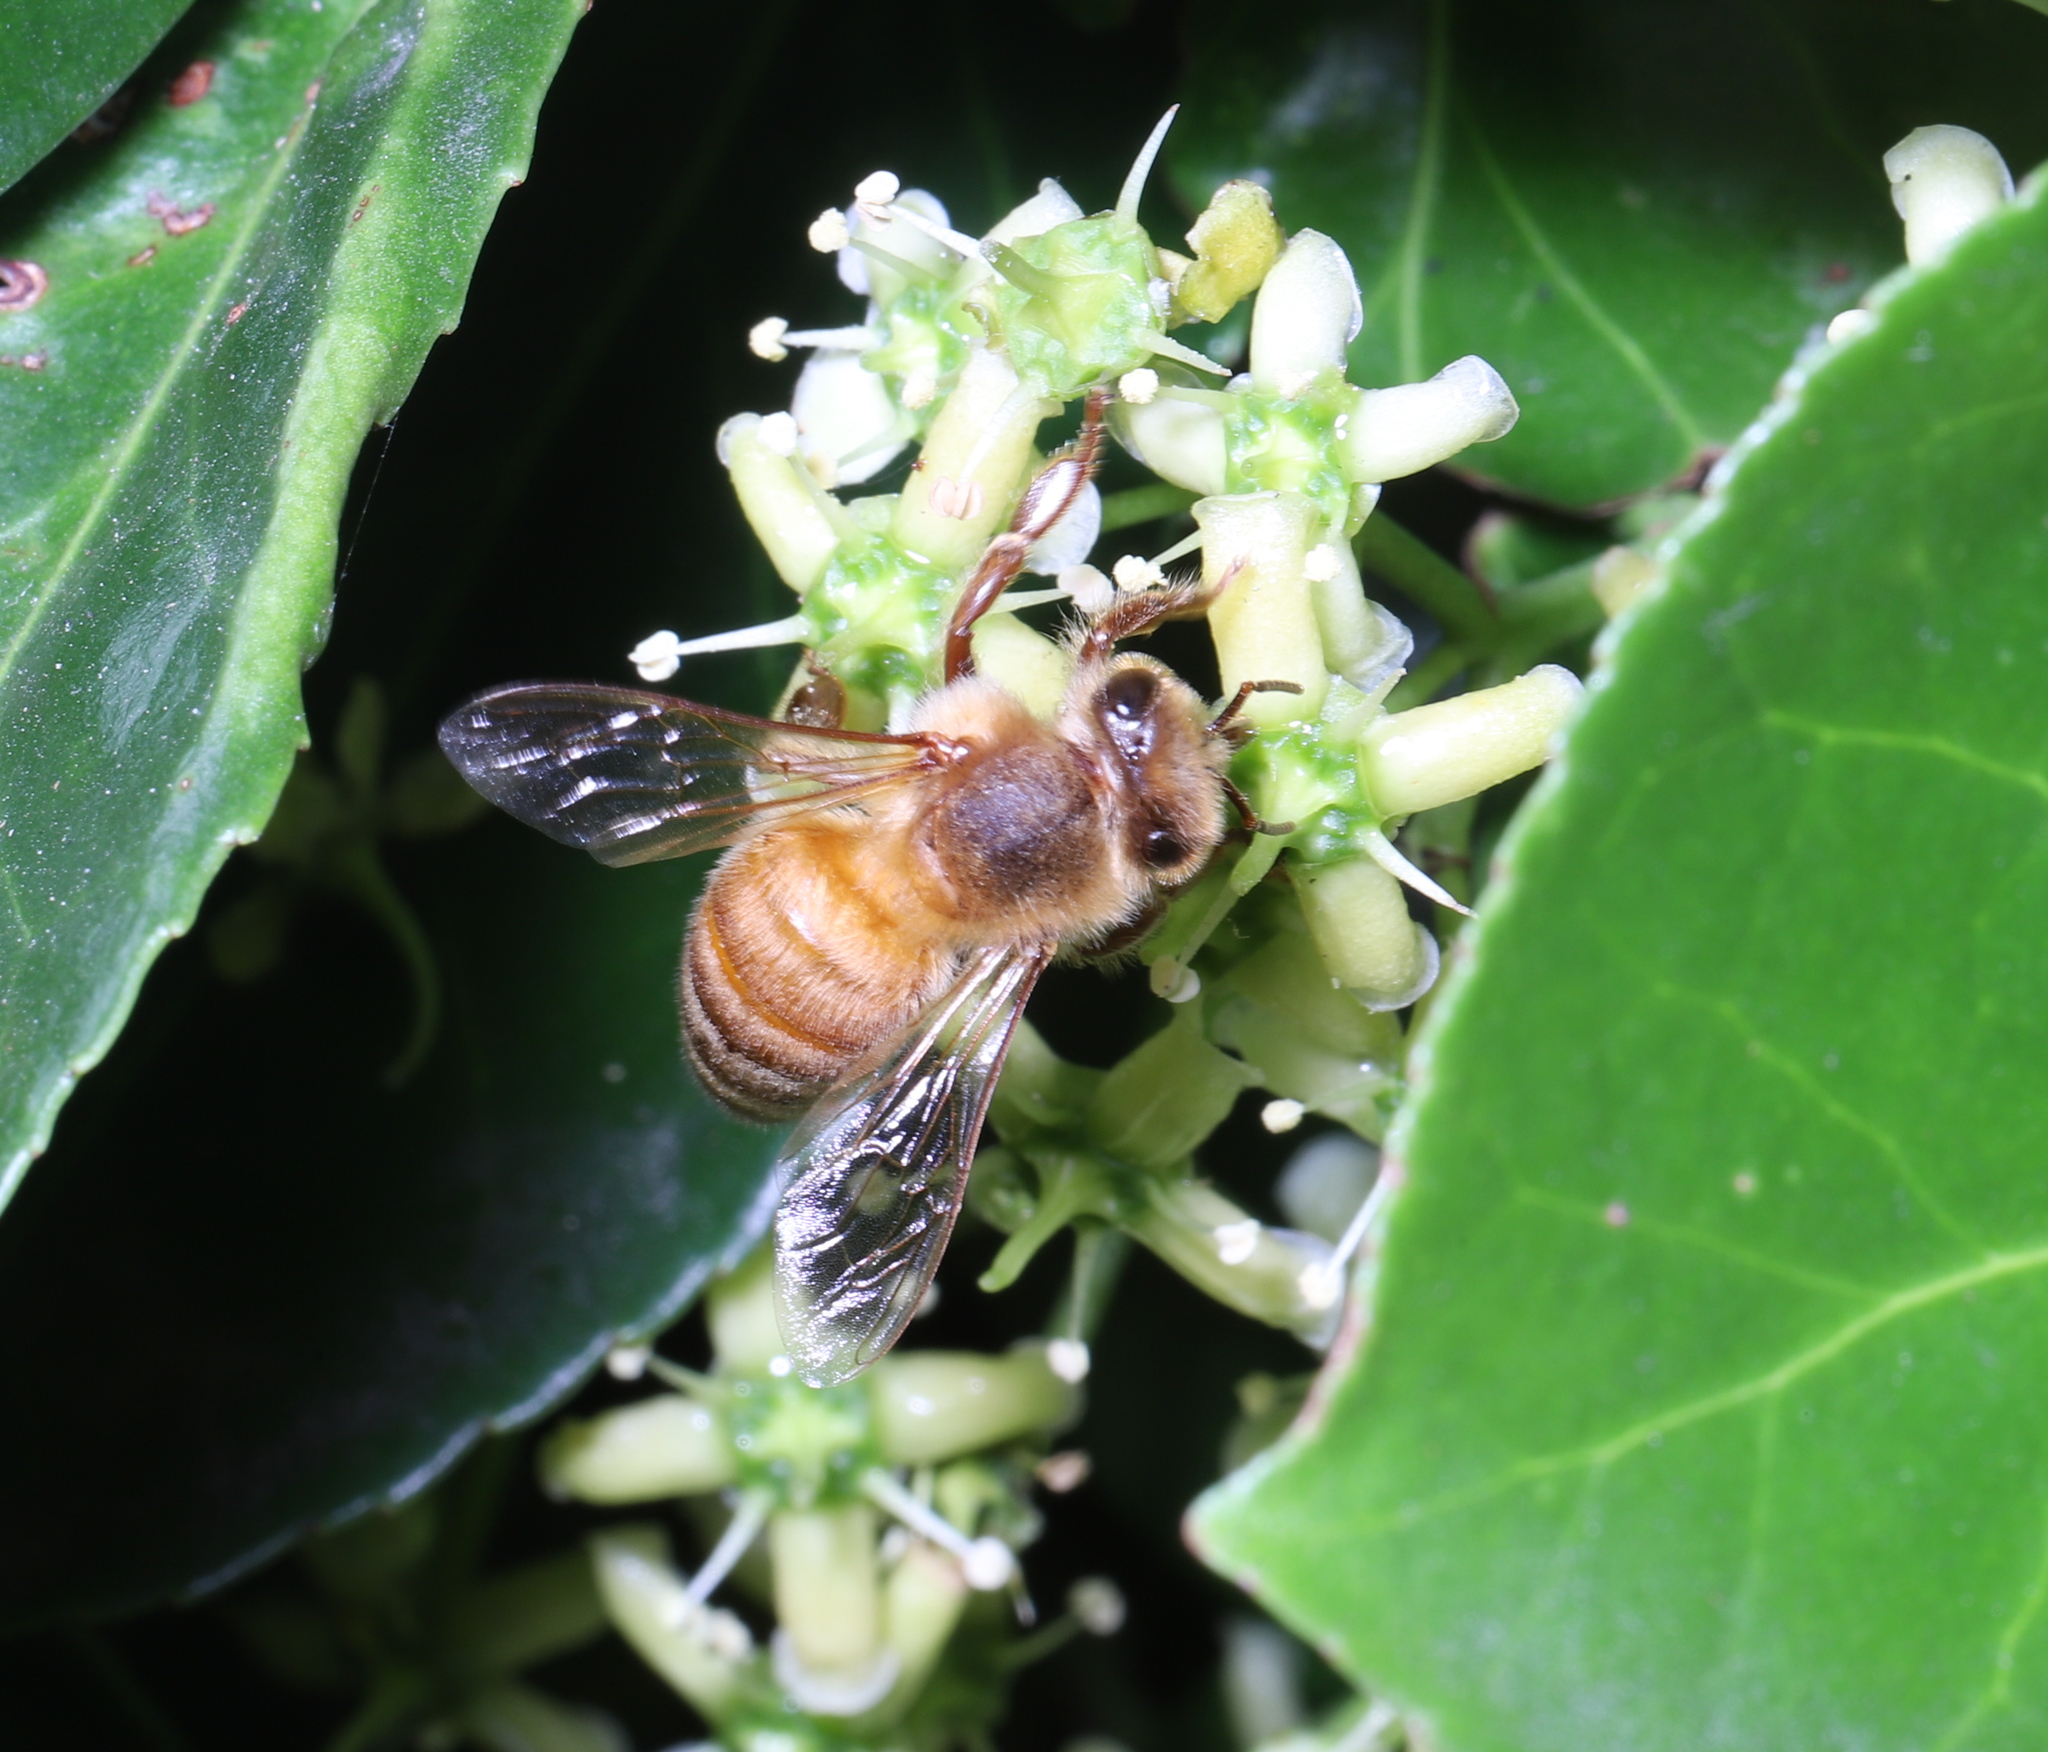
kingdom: Animalia
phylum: Arthropoda
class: Insecta
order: Hymenoptera
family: Apidae
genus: Apis
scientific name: Apis mellifera
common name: Honey bee
